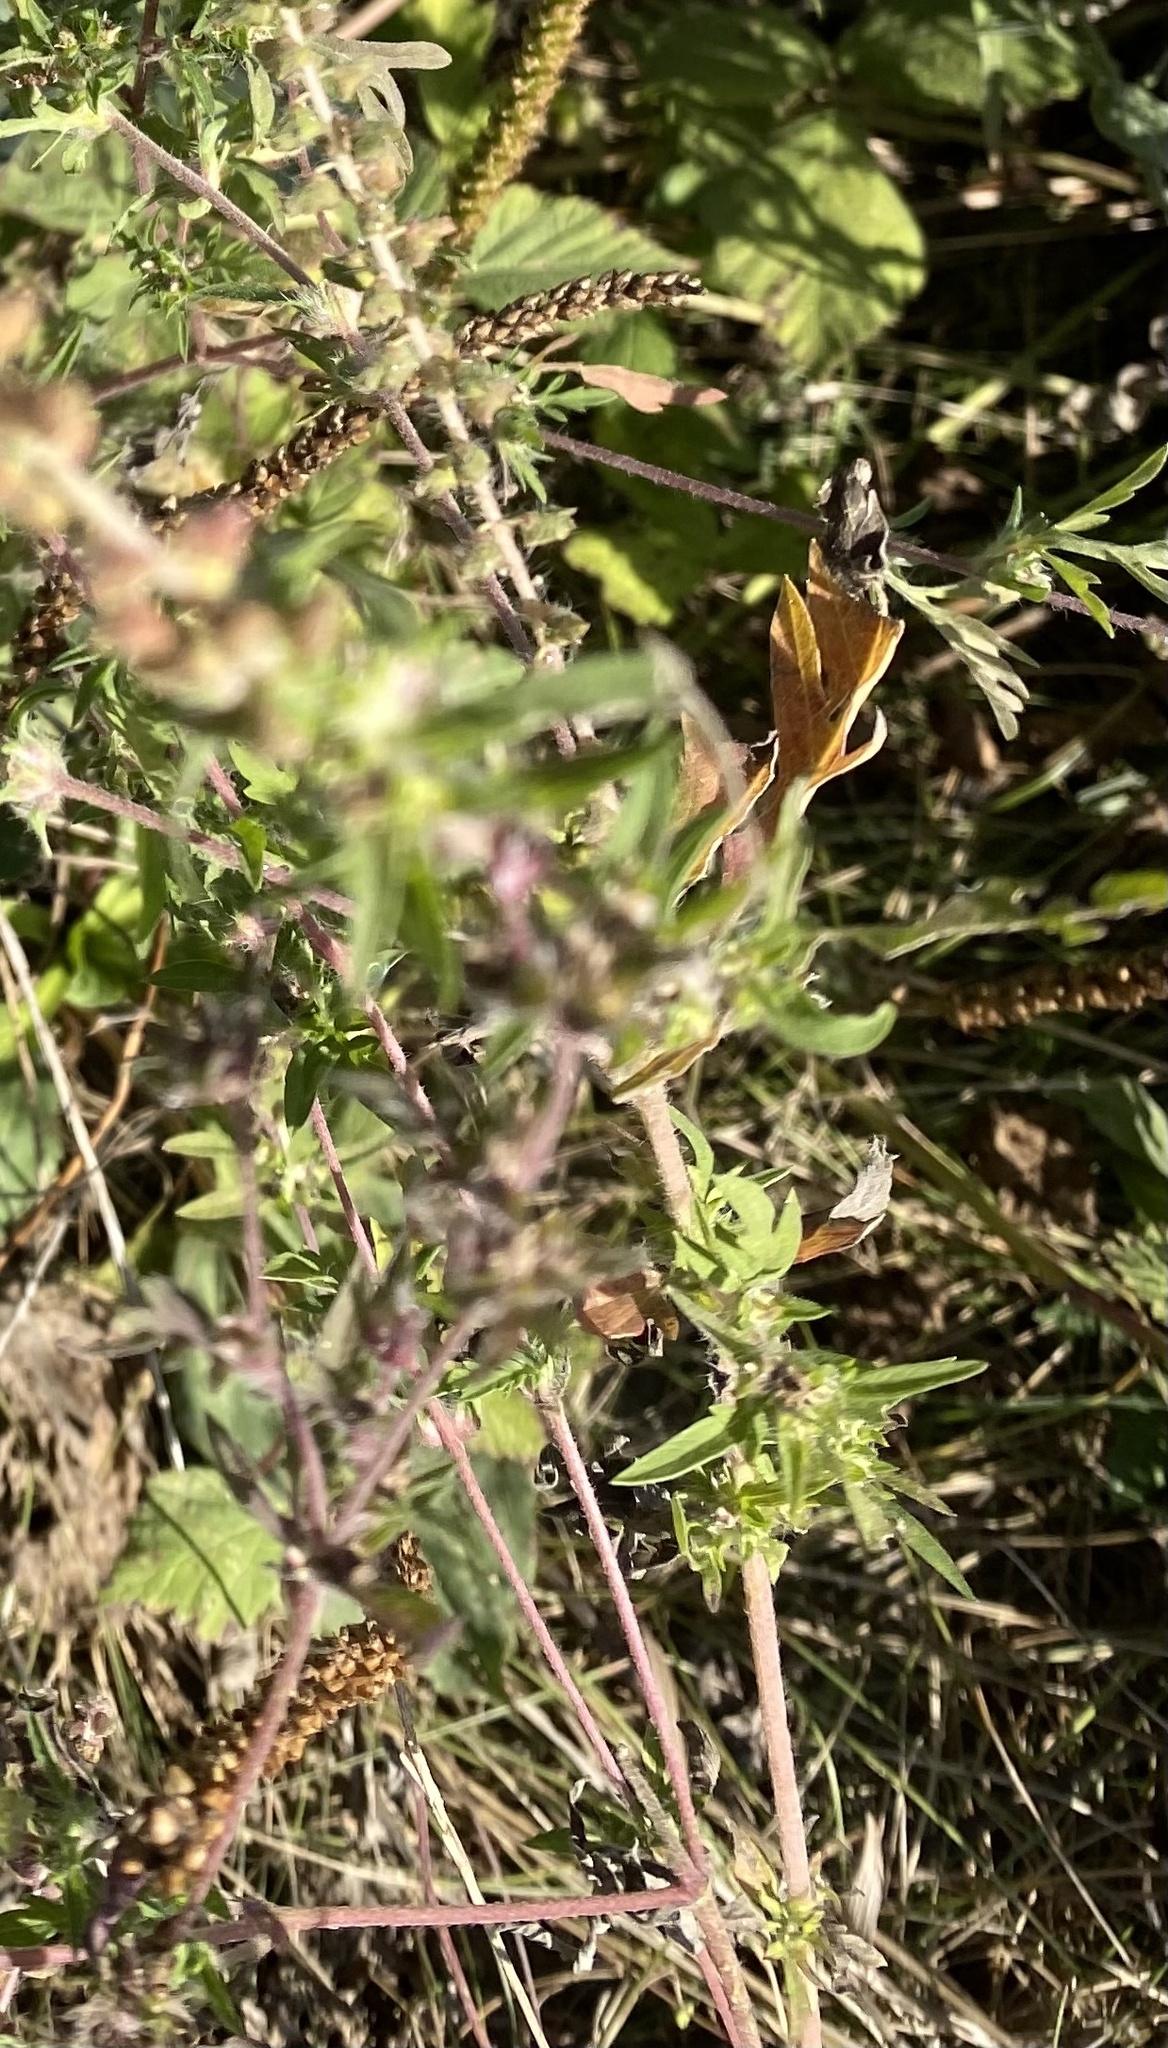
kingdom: Plantae
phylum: Tracheophyta
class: Magnoliopsida
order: Asterales
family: Asteraceae
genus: Ambrosia
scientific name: Ambrosia artemisiifolia
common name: Annual ragweed
